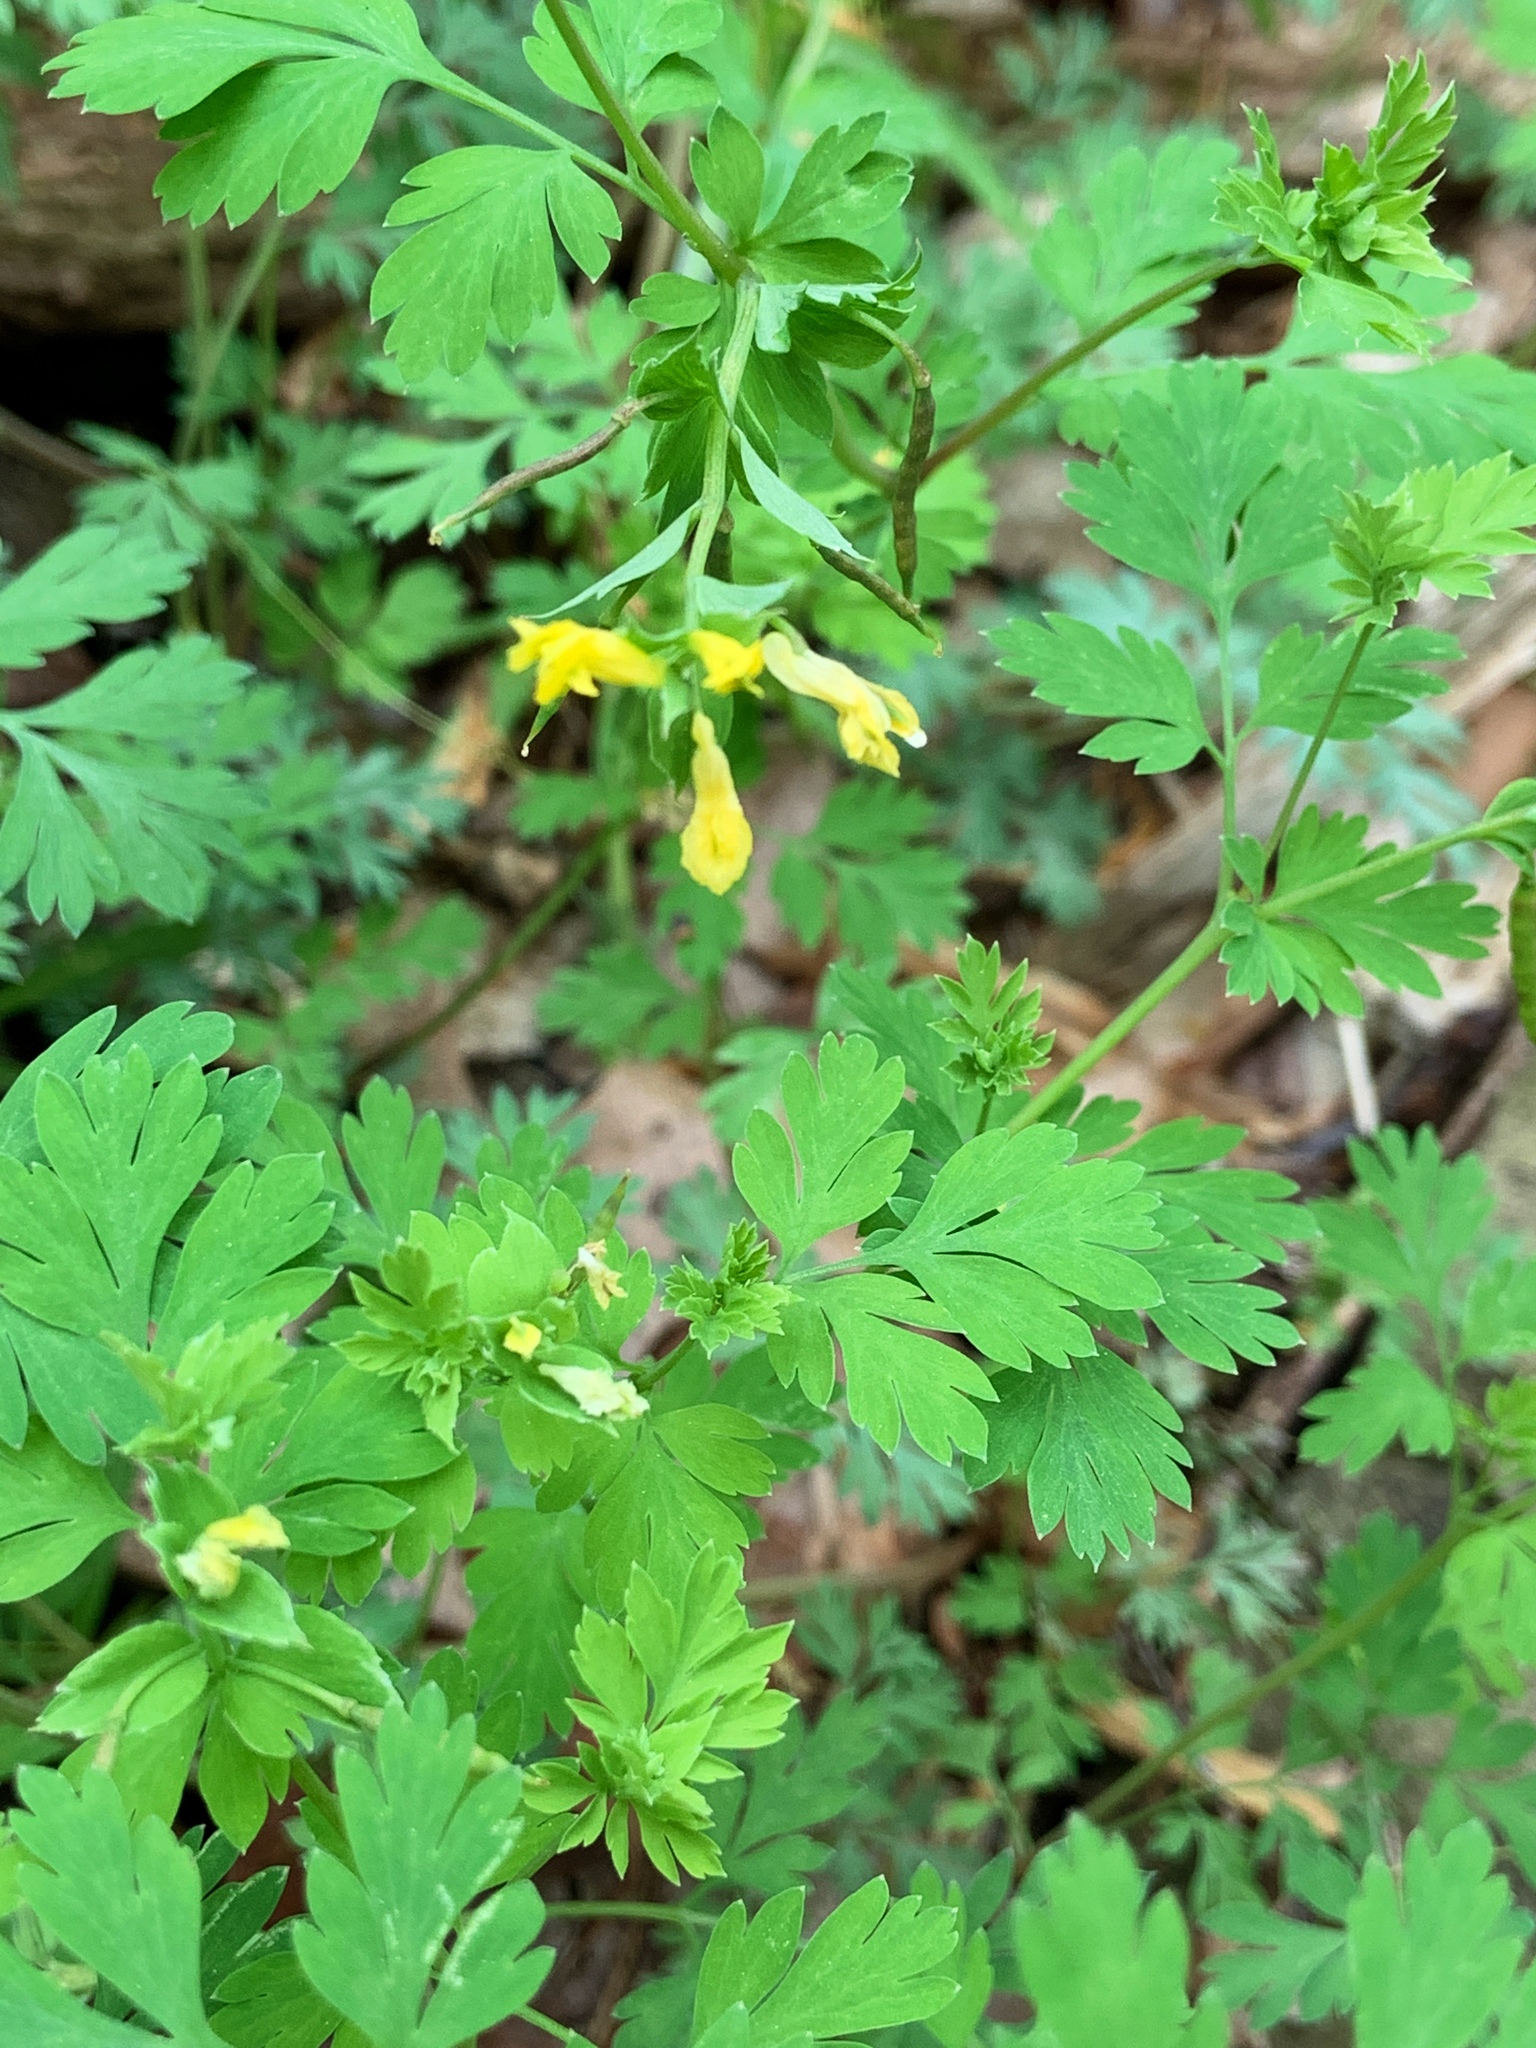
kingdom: Plantae
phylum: Tracheophyta
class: Magnoliopsida
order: Ranunculales
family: Papaveraceae
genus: Corydalis
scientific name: Corydalis flavula
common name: Yellow corydalis
